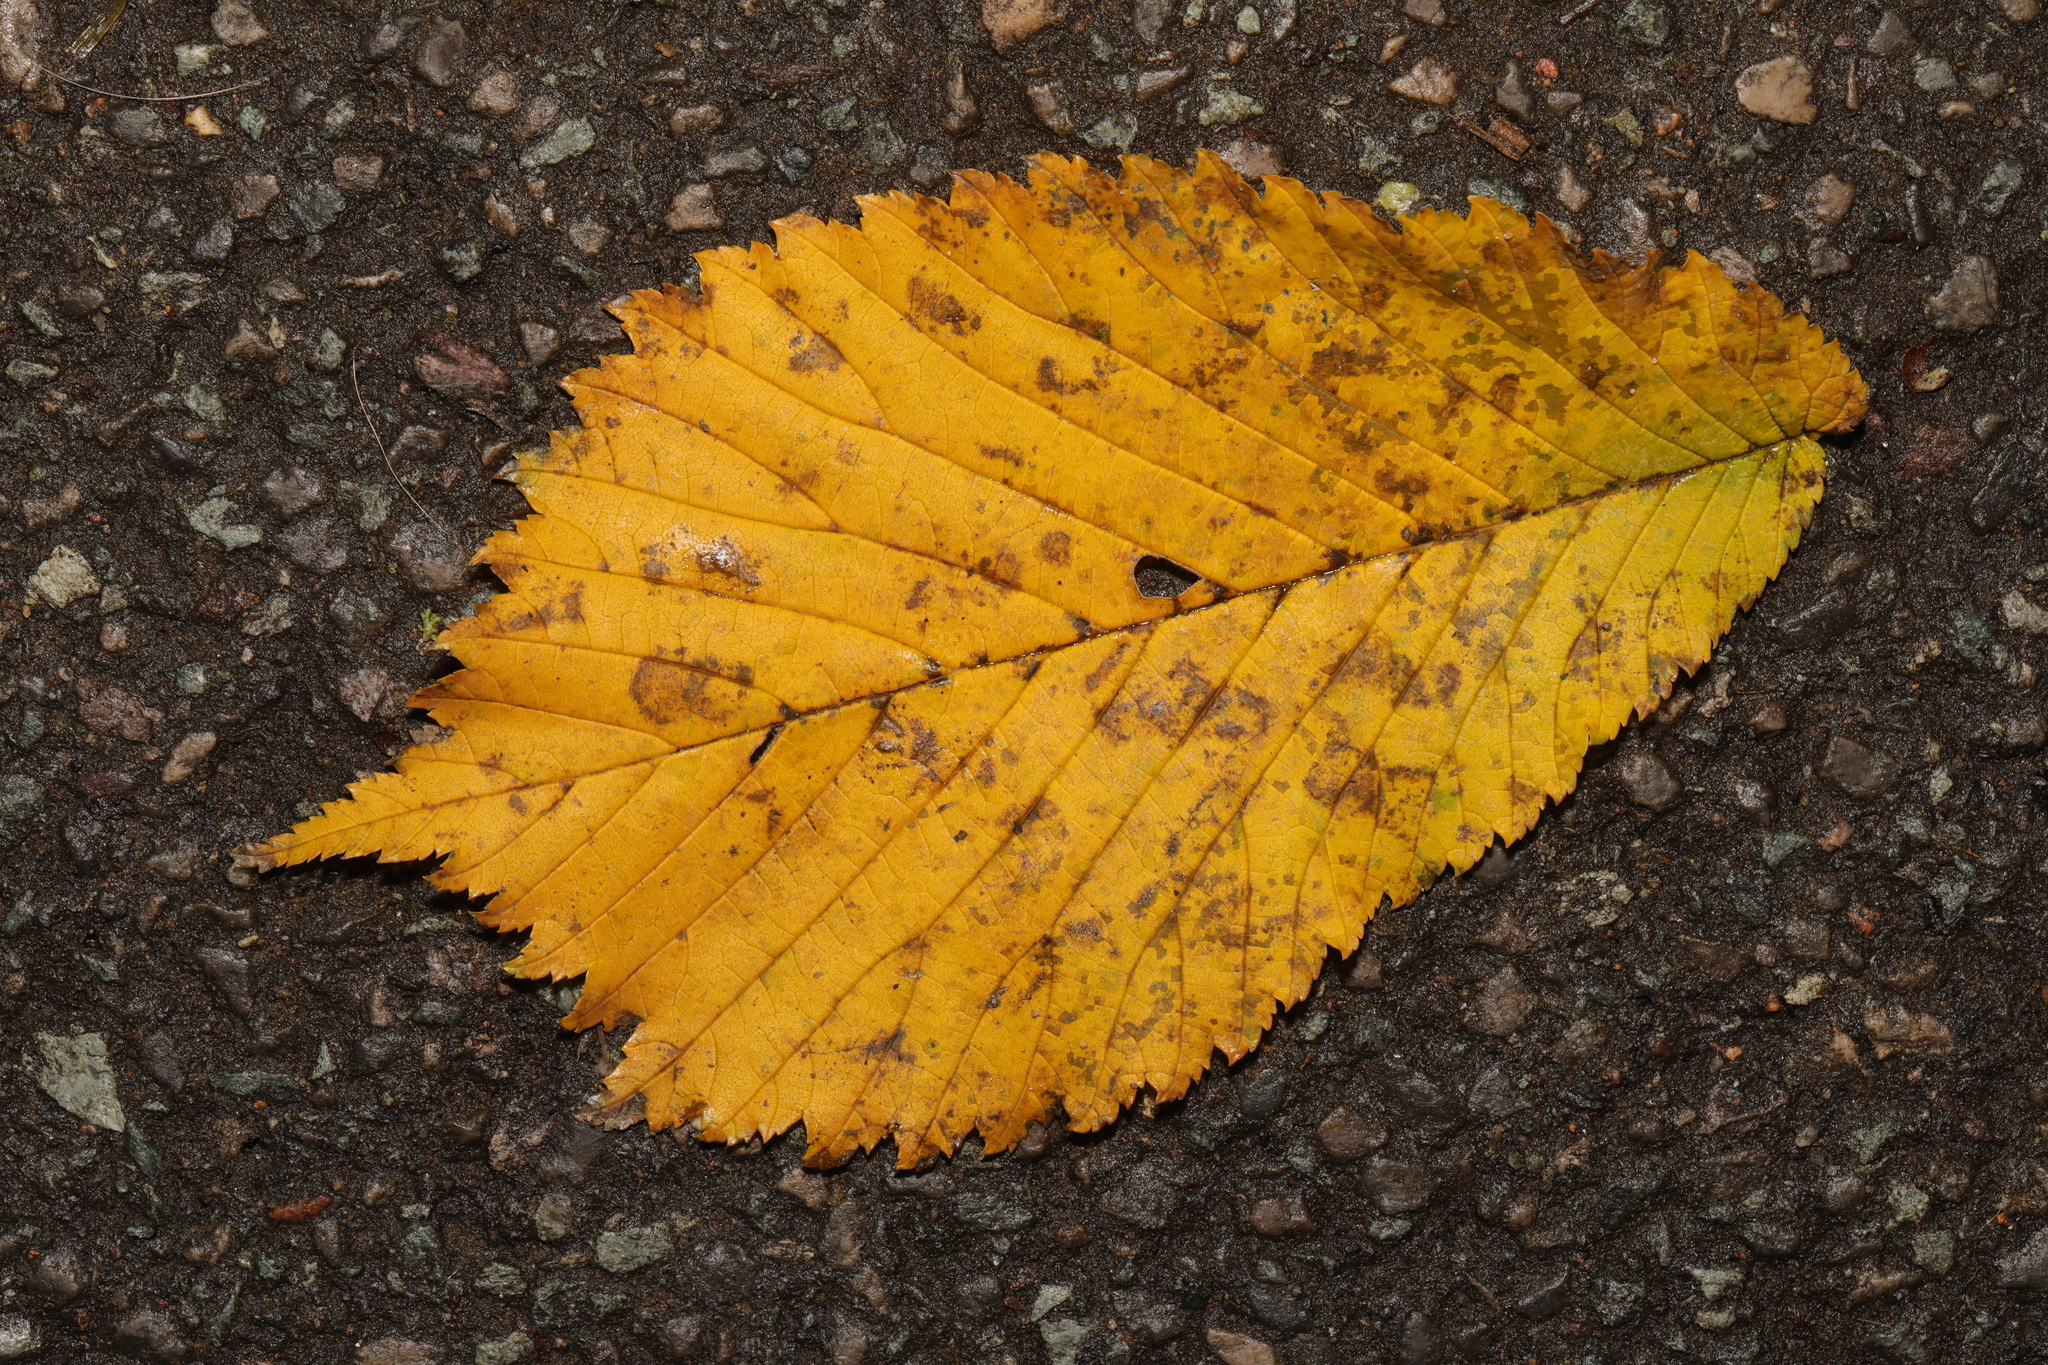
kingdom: Plantae
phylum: Tracheophyta
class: Magnoliopsida
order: Rosales
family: Ulmaceae
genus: Ulmus
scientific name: Ulmus glabra
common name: Wych elm
